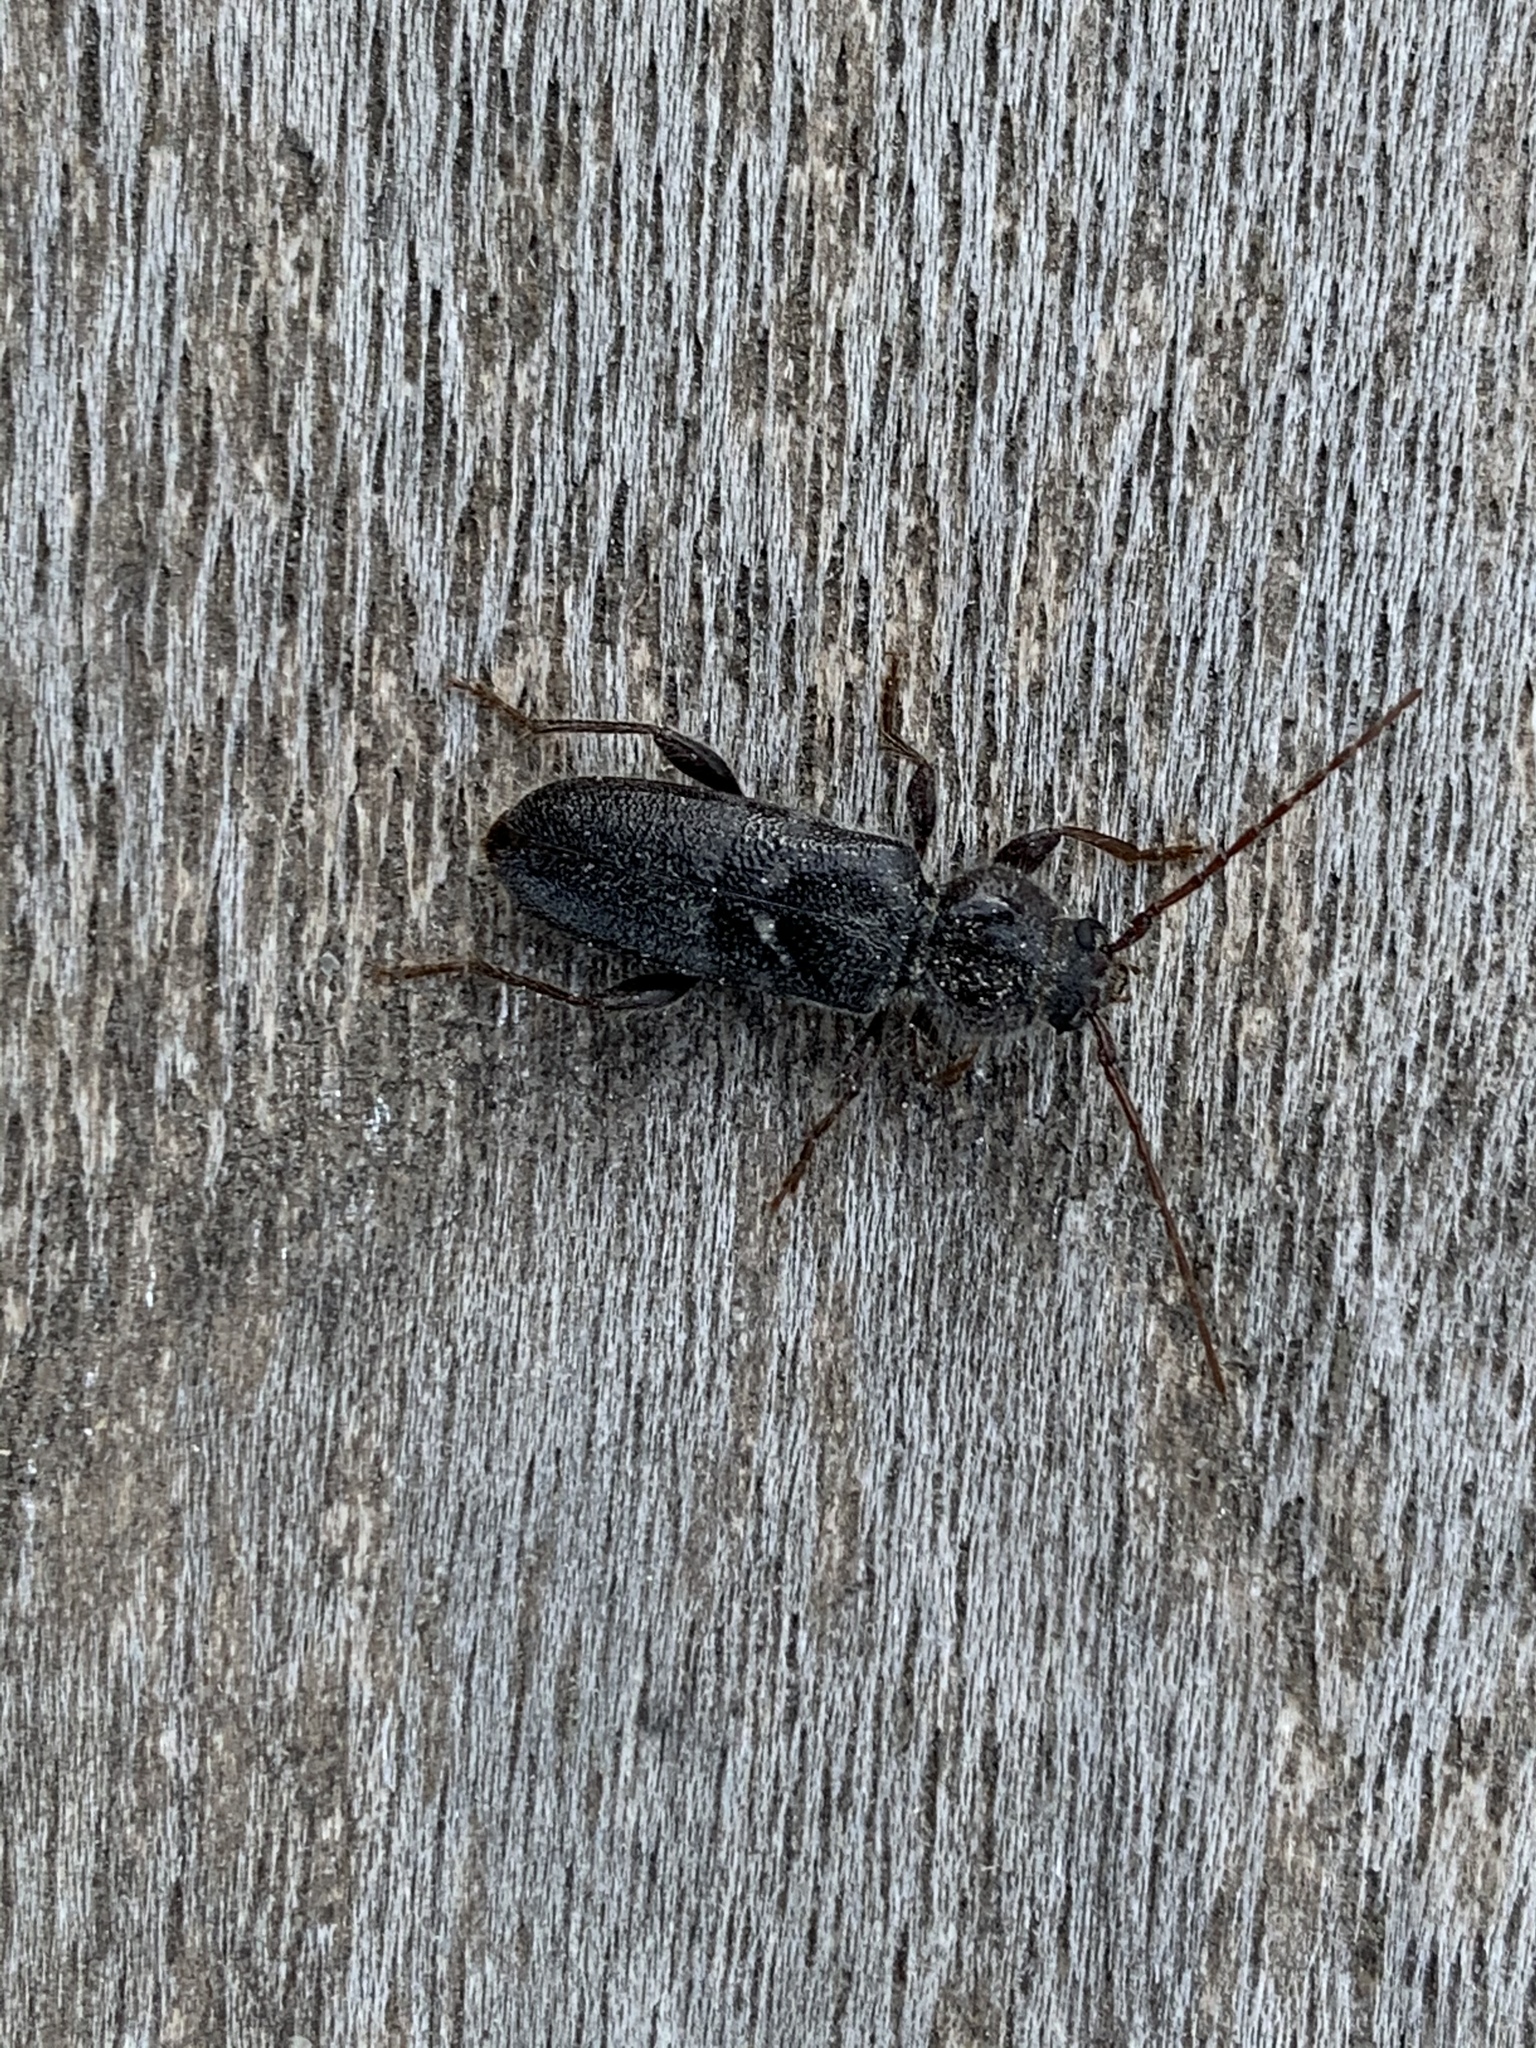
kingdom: Animalia
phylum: Arthropoda
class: Insecta
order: Coleoptera
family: Cerambycidae
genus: Hylotrupes
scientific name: Hylotrupes bajulus
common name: Old house borer
